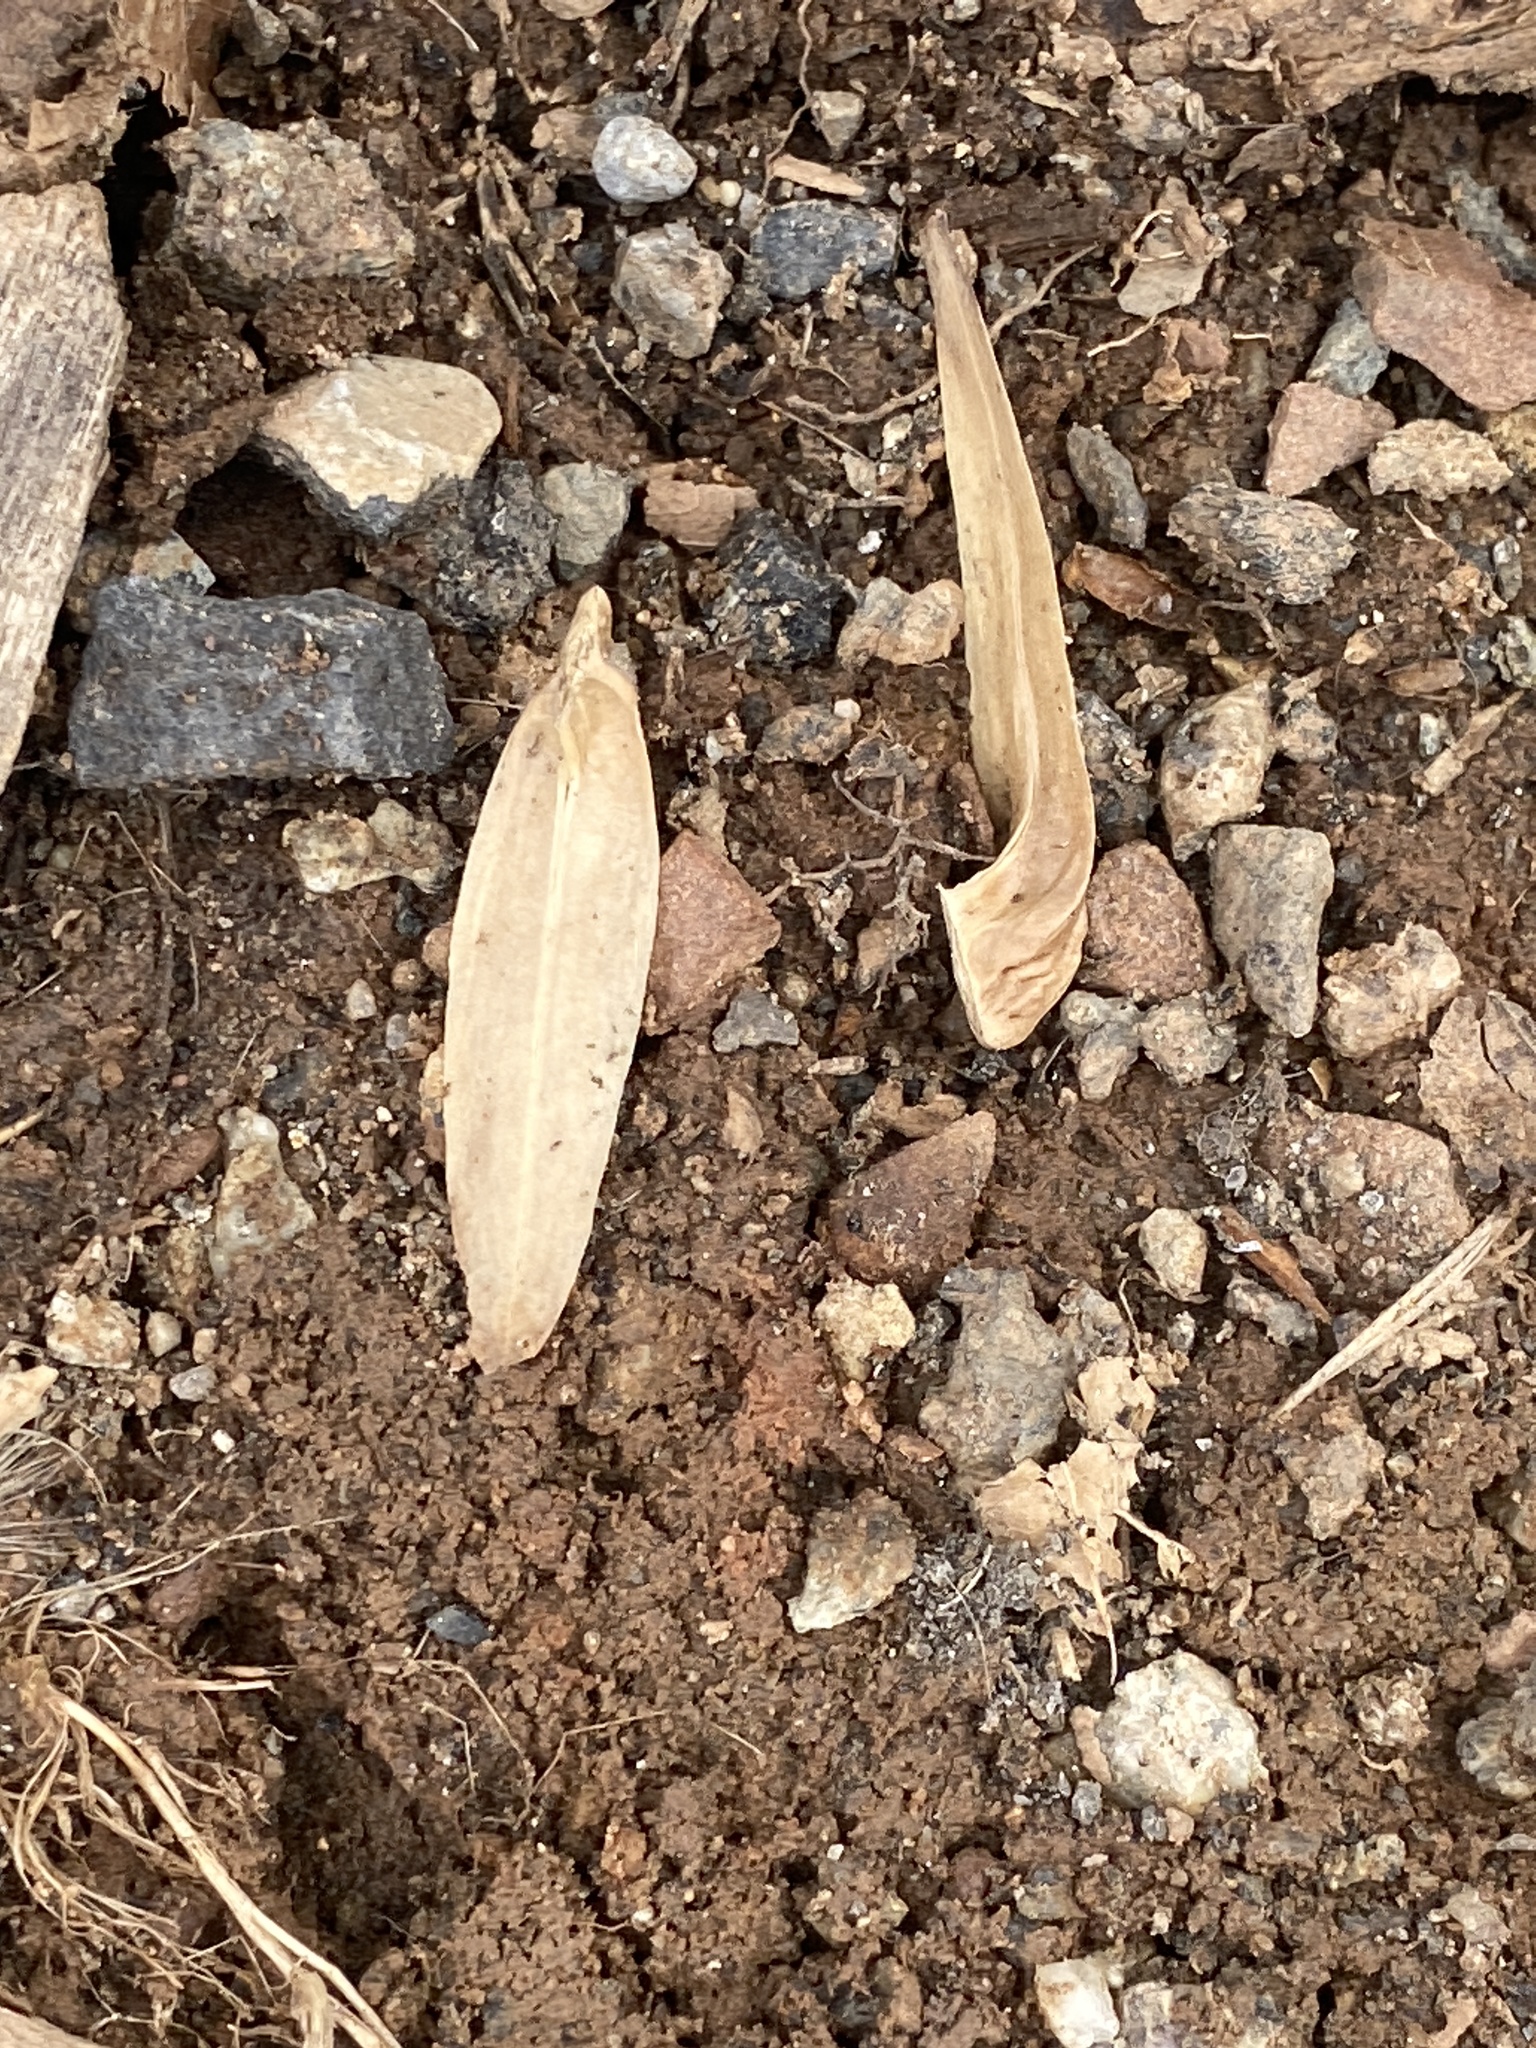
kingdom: Plantae
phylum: Tracheophyta
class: Magnoliopsida
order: Magnoliales
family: Magnoliaceae
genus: Liriodendron
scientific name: Liriodendron tulipifera
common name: Tulip tree
